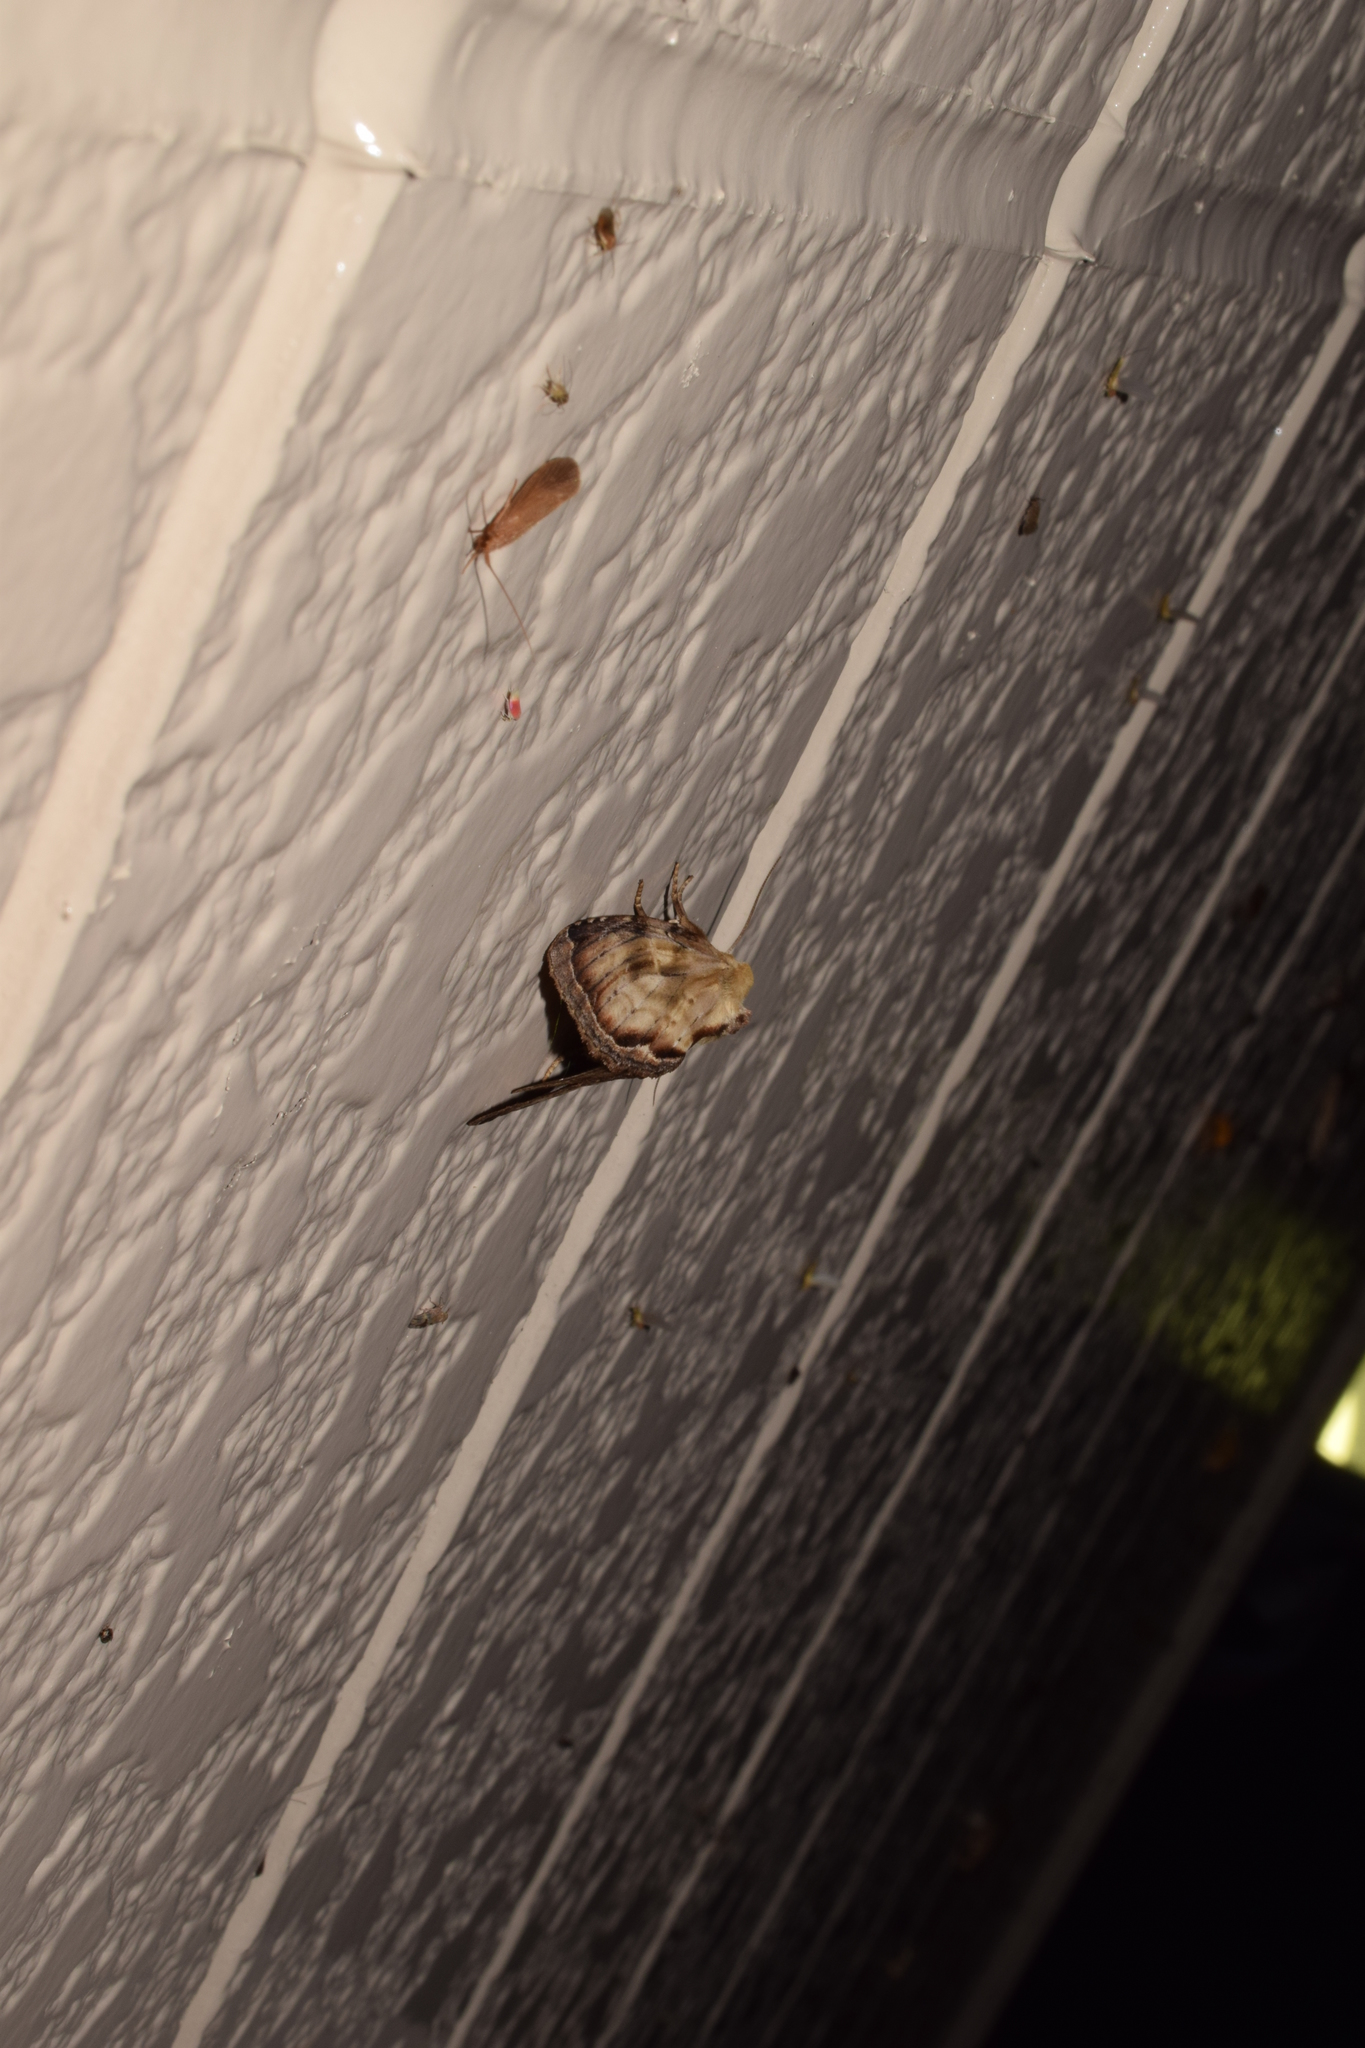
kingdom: Animalia
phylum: Arthropoda
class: Insecta
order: Lepidoptera
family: Notodontidae
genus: Hupodonta
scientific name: Hupodonta corticalis
